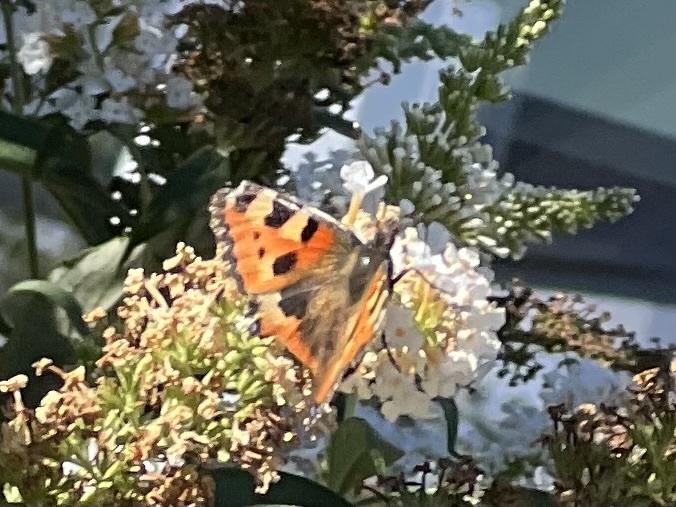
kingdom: Animalia
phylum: Arthropoda
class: Insecta
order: Lepidoptera
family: Nymphalidae
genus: Aglais
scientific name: Aglais urticae
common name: Small tortoiseshell
